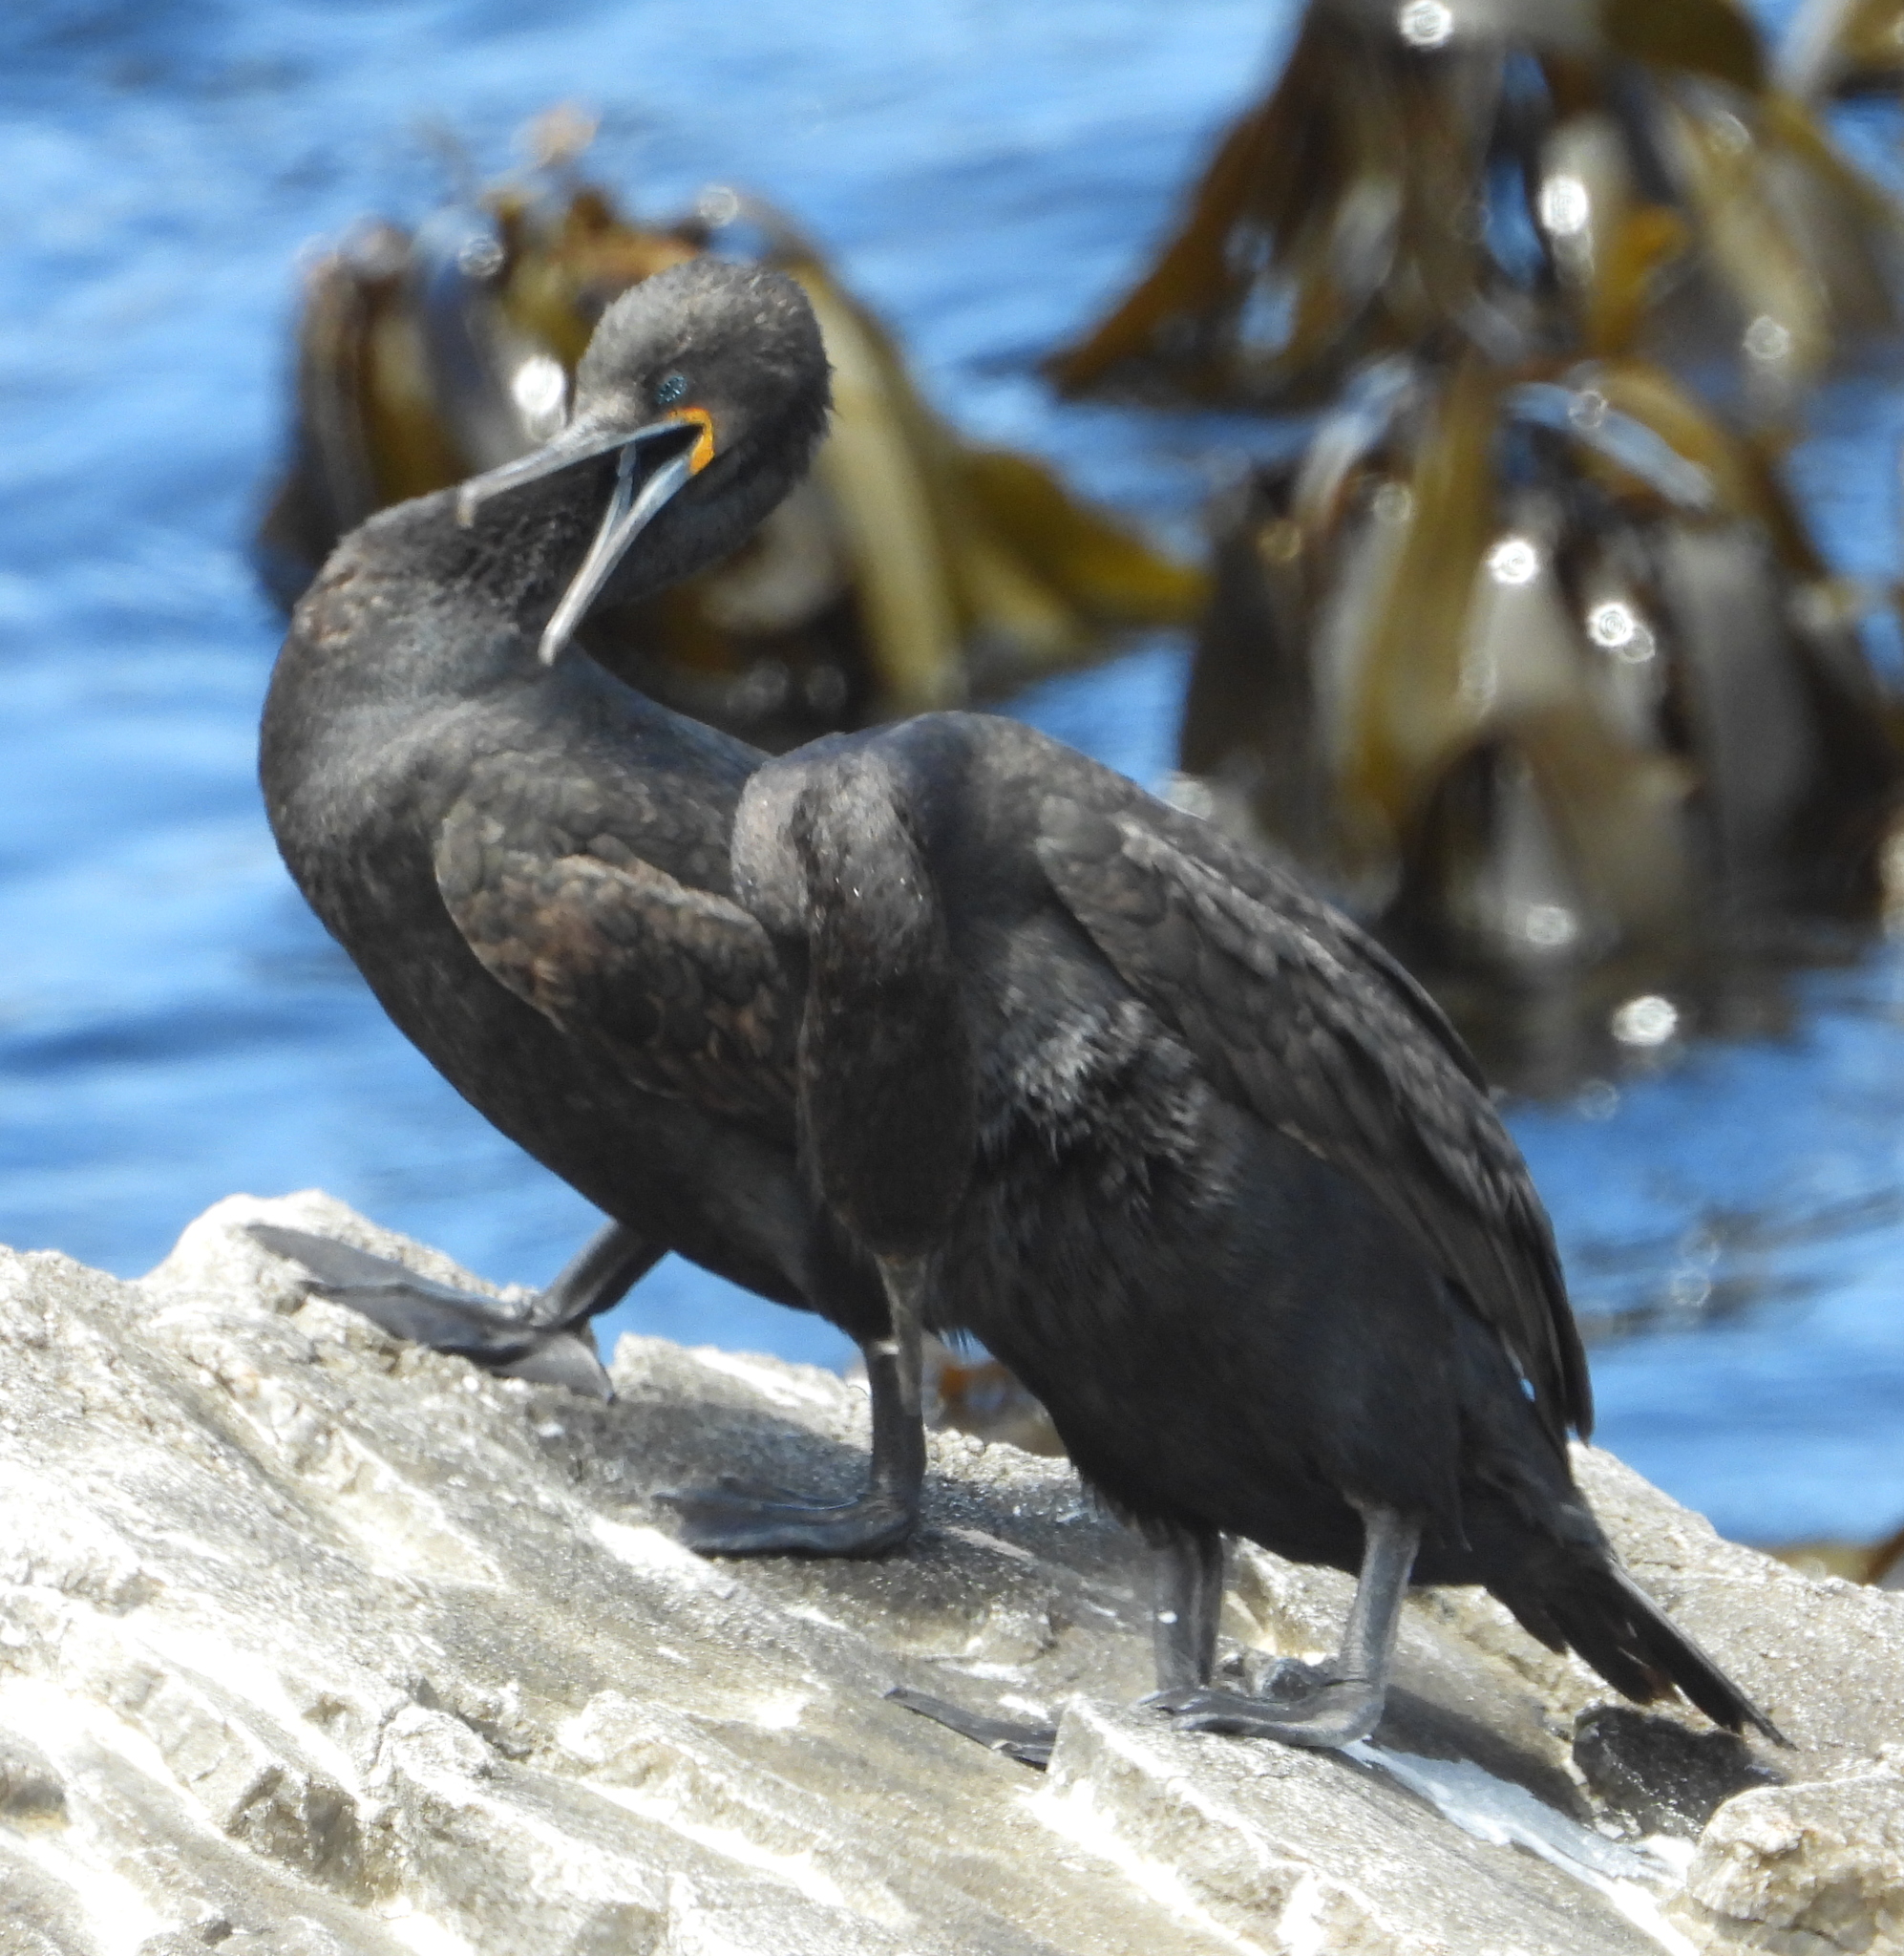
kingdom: Animalia
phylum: Chordata
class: Aves
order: Suliformes
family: Phalacrocoracidae
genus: Phalacrocorax
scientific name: Phalacrocorax capensis
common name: Cape cormorant
